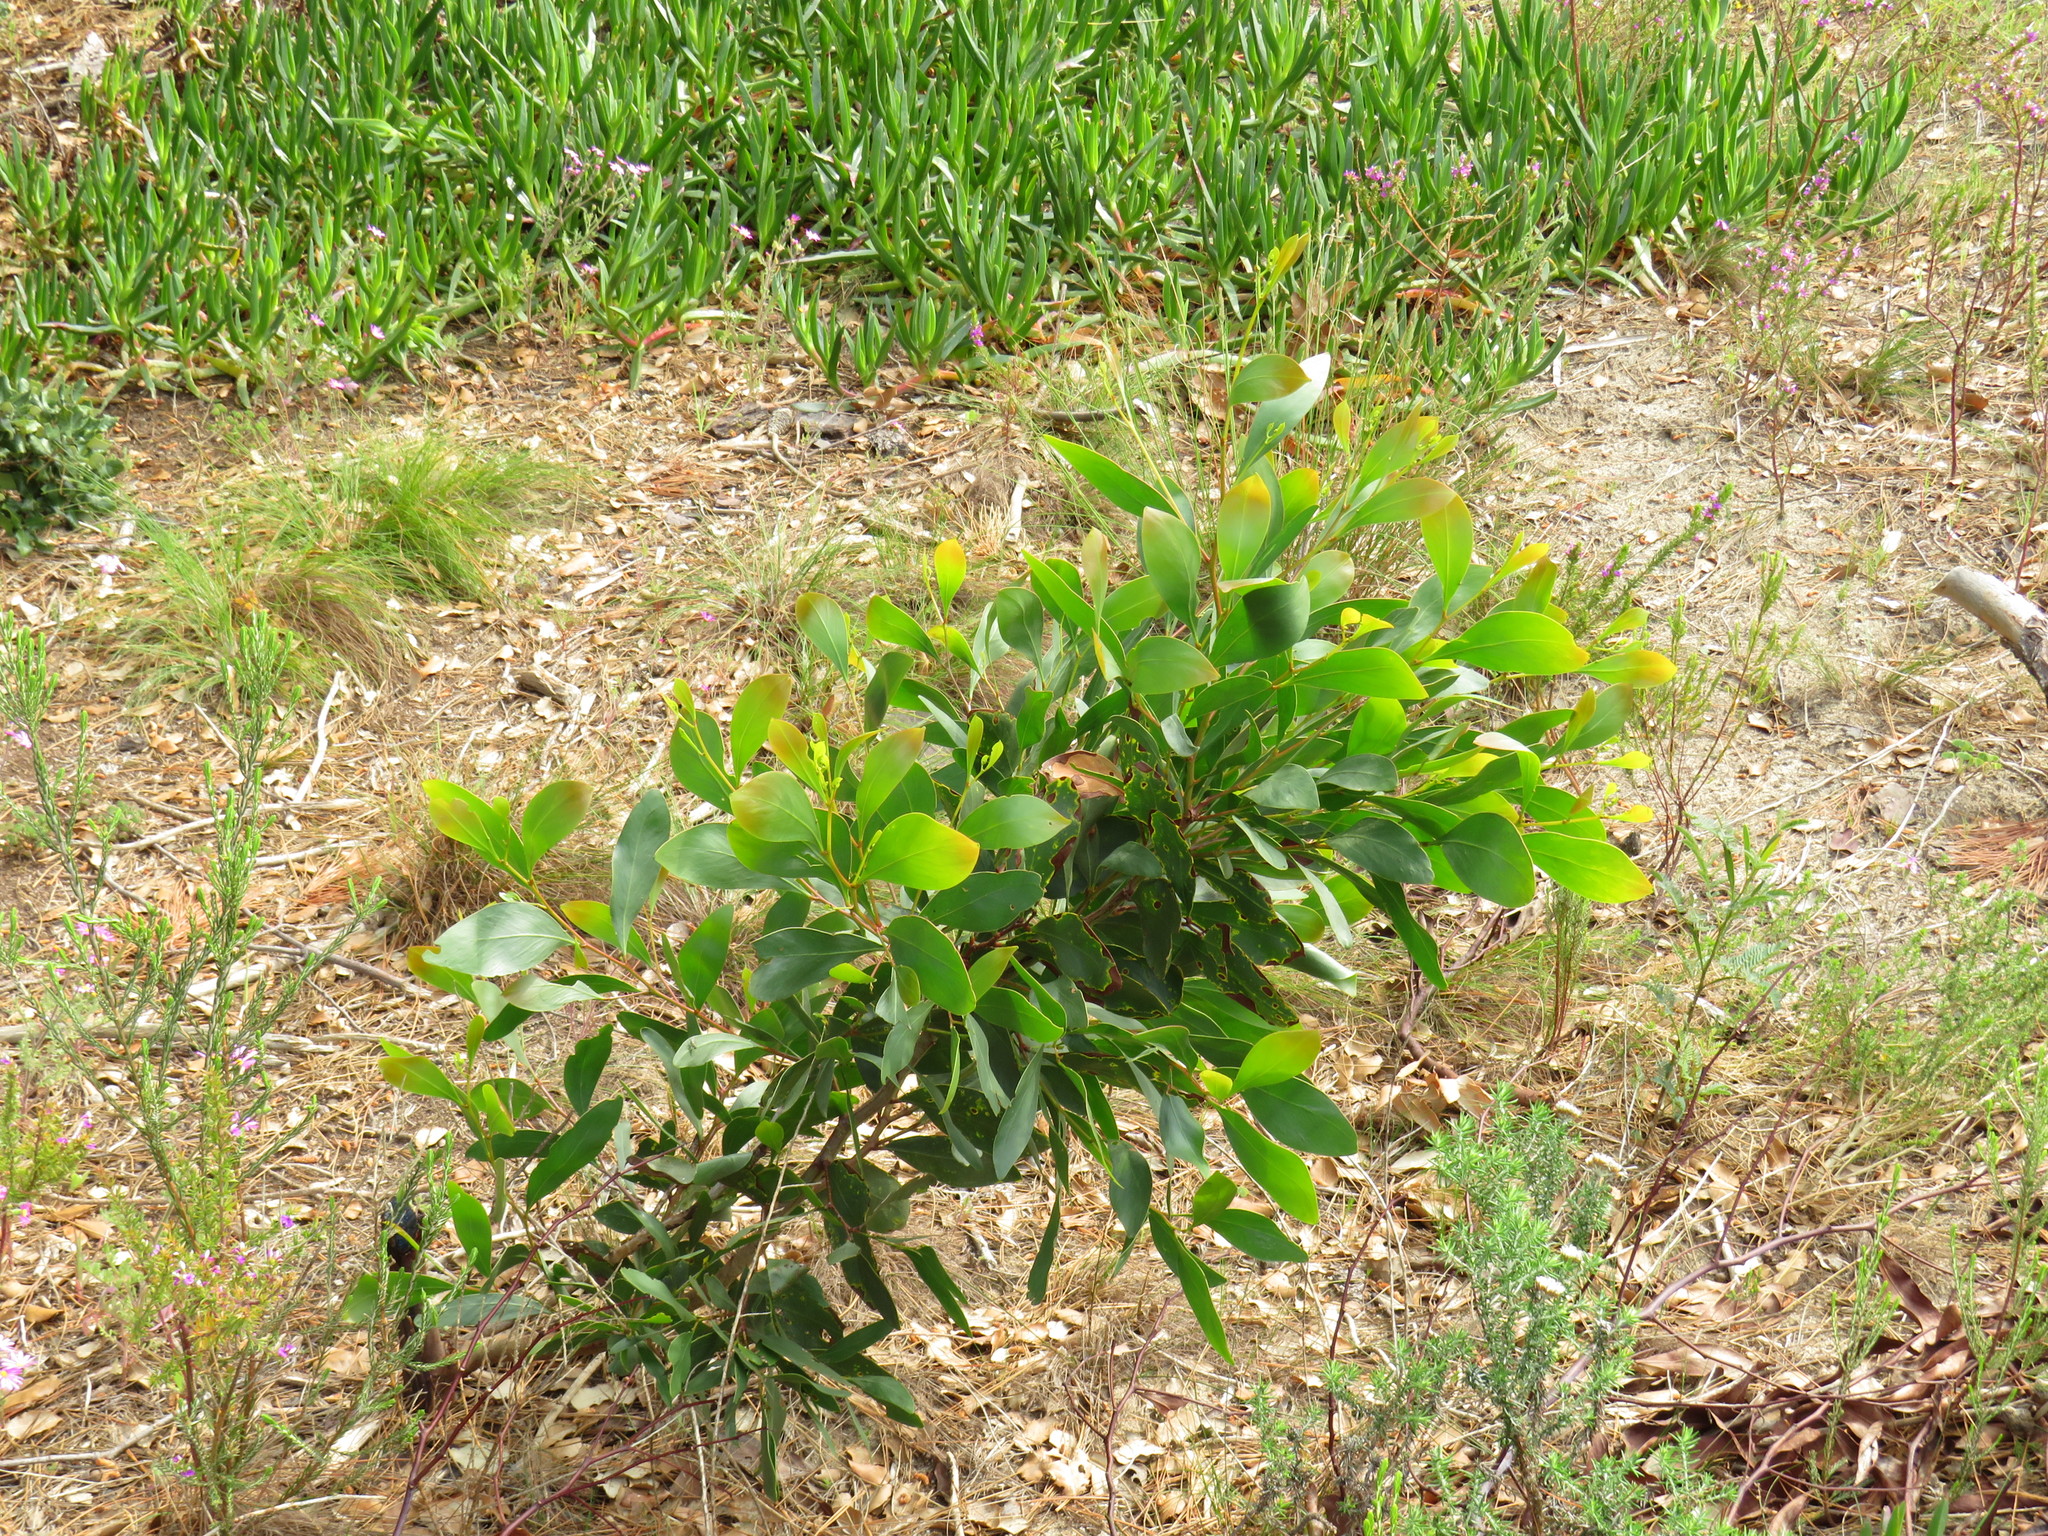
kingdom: Plantae
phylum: Tracheophyta
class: Magnoliopsida
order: Fabales
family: Fabaceae
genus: Acacia
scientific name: Acacia pycnantha
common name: Golden wattle
